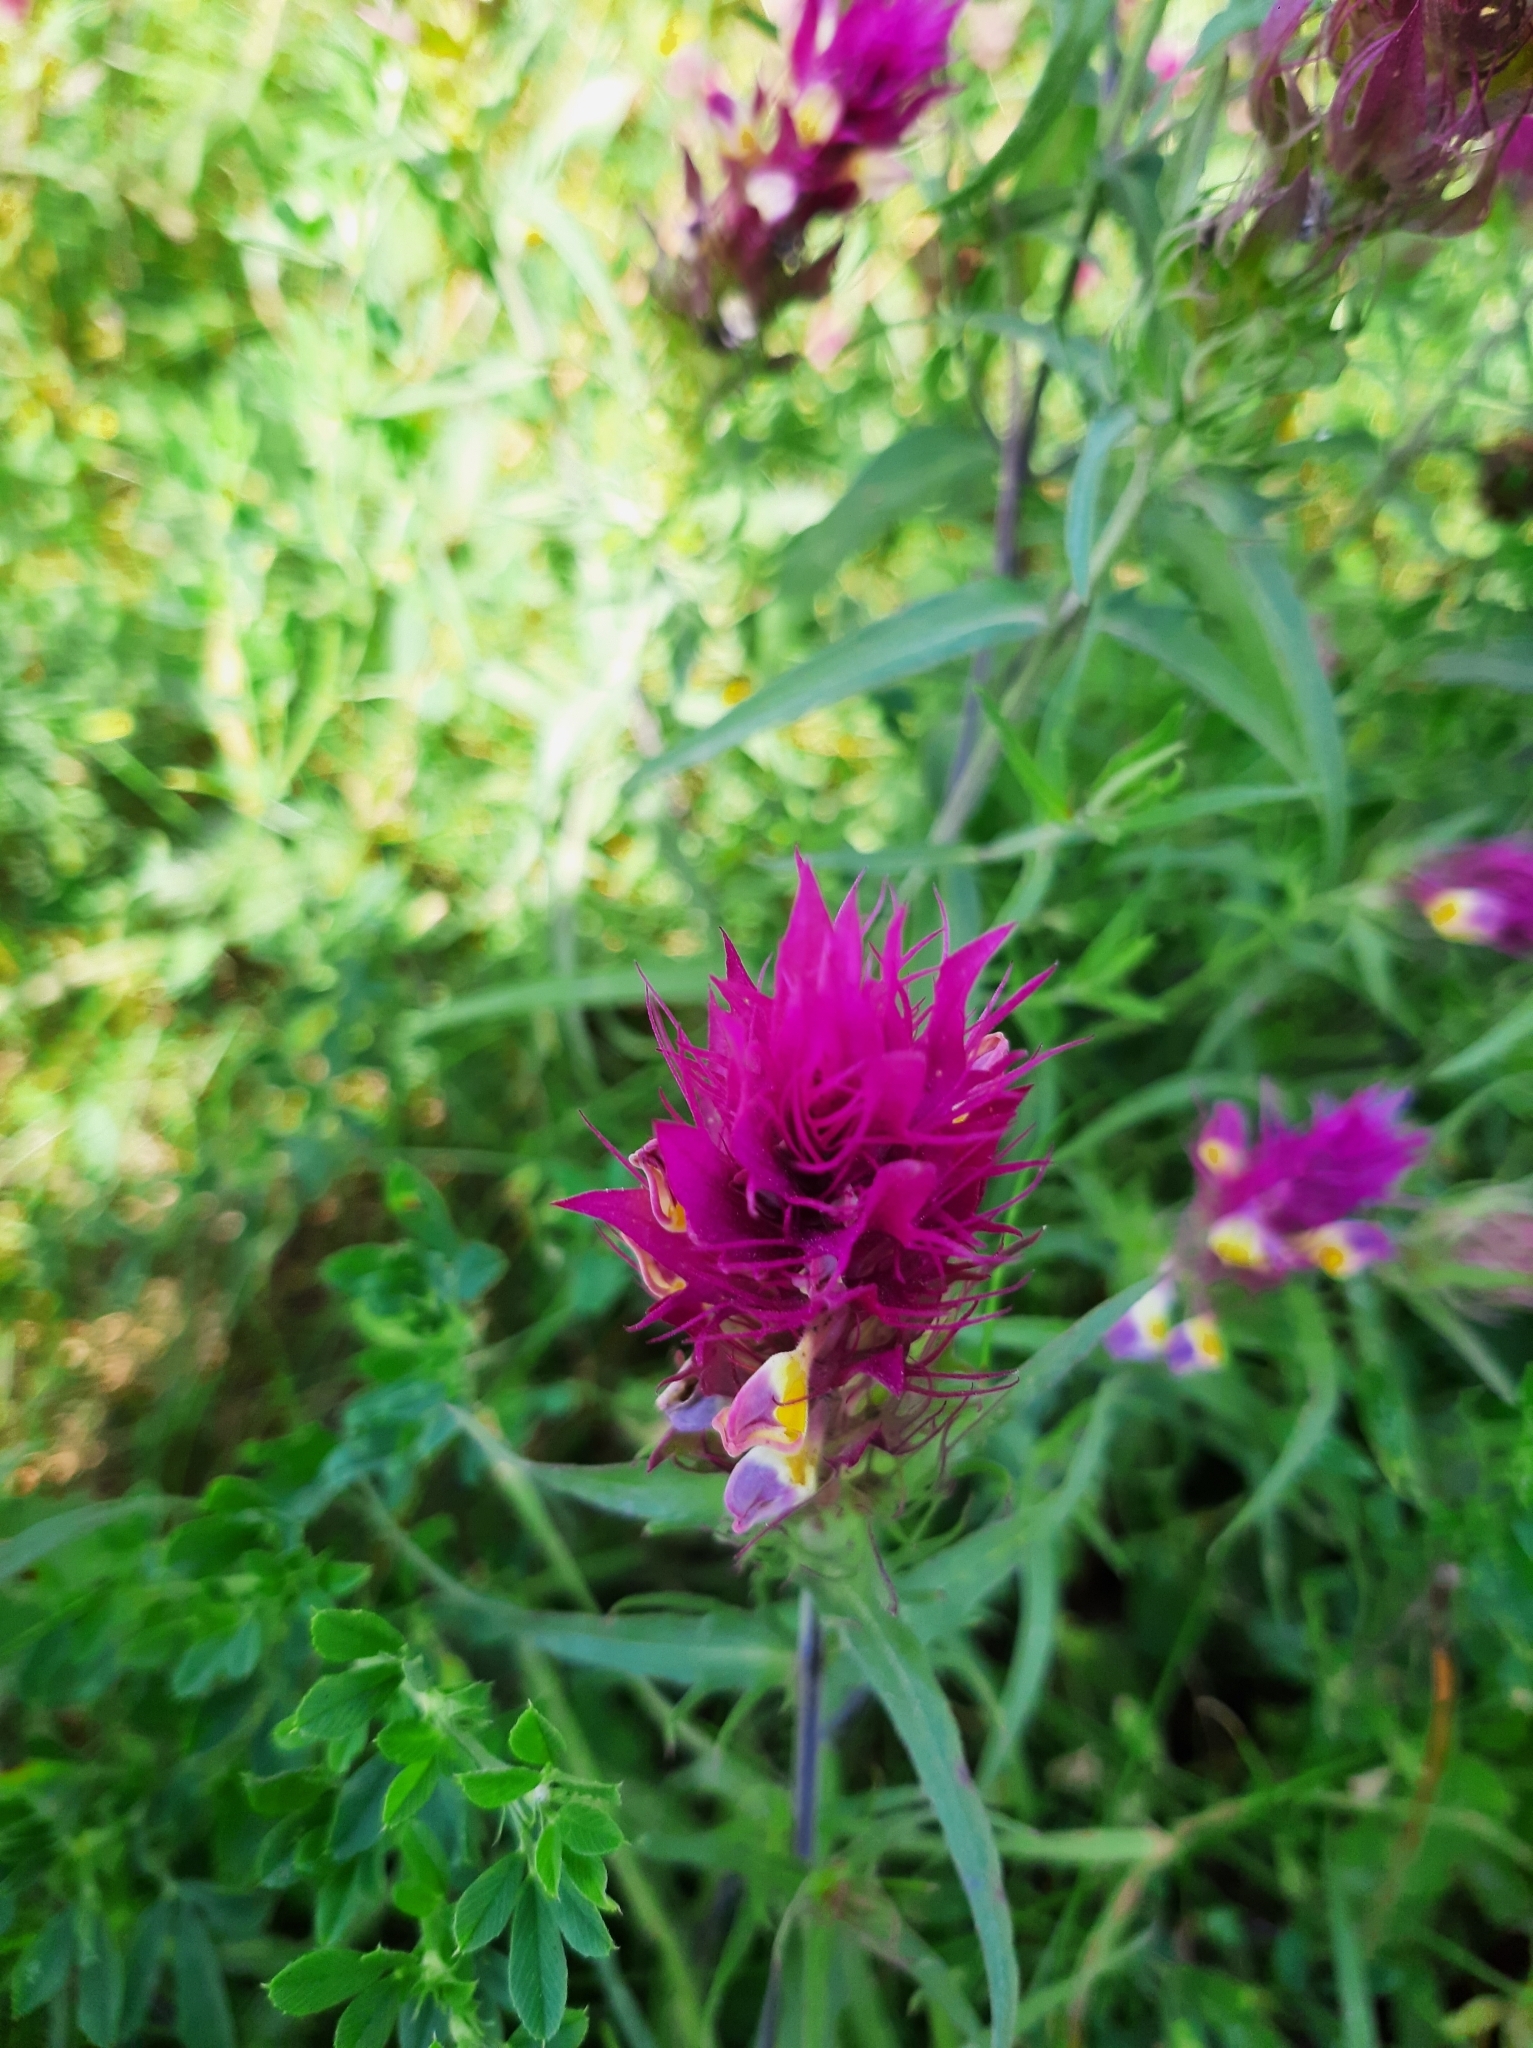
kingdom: Plantae
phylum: Tracheophyta
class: Magnoliopsida
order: Lamiales
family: Orobanchaceae
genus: Melampyrum
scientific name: Melampyrum arvense
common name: Field cow-wheat
